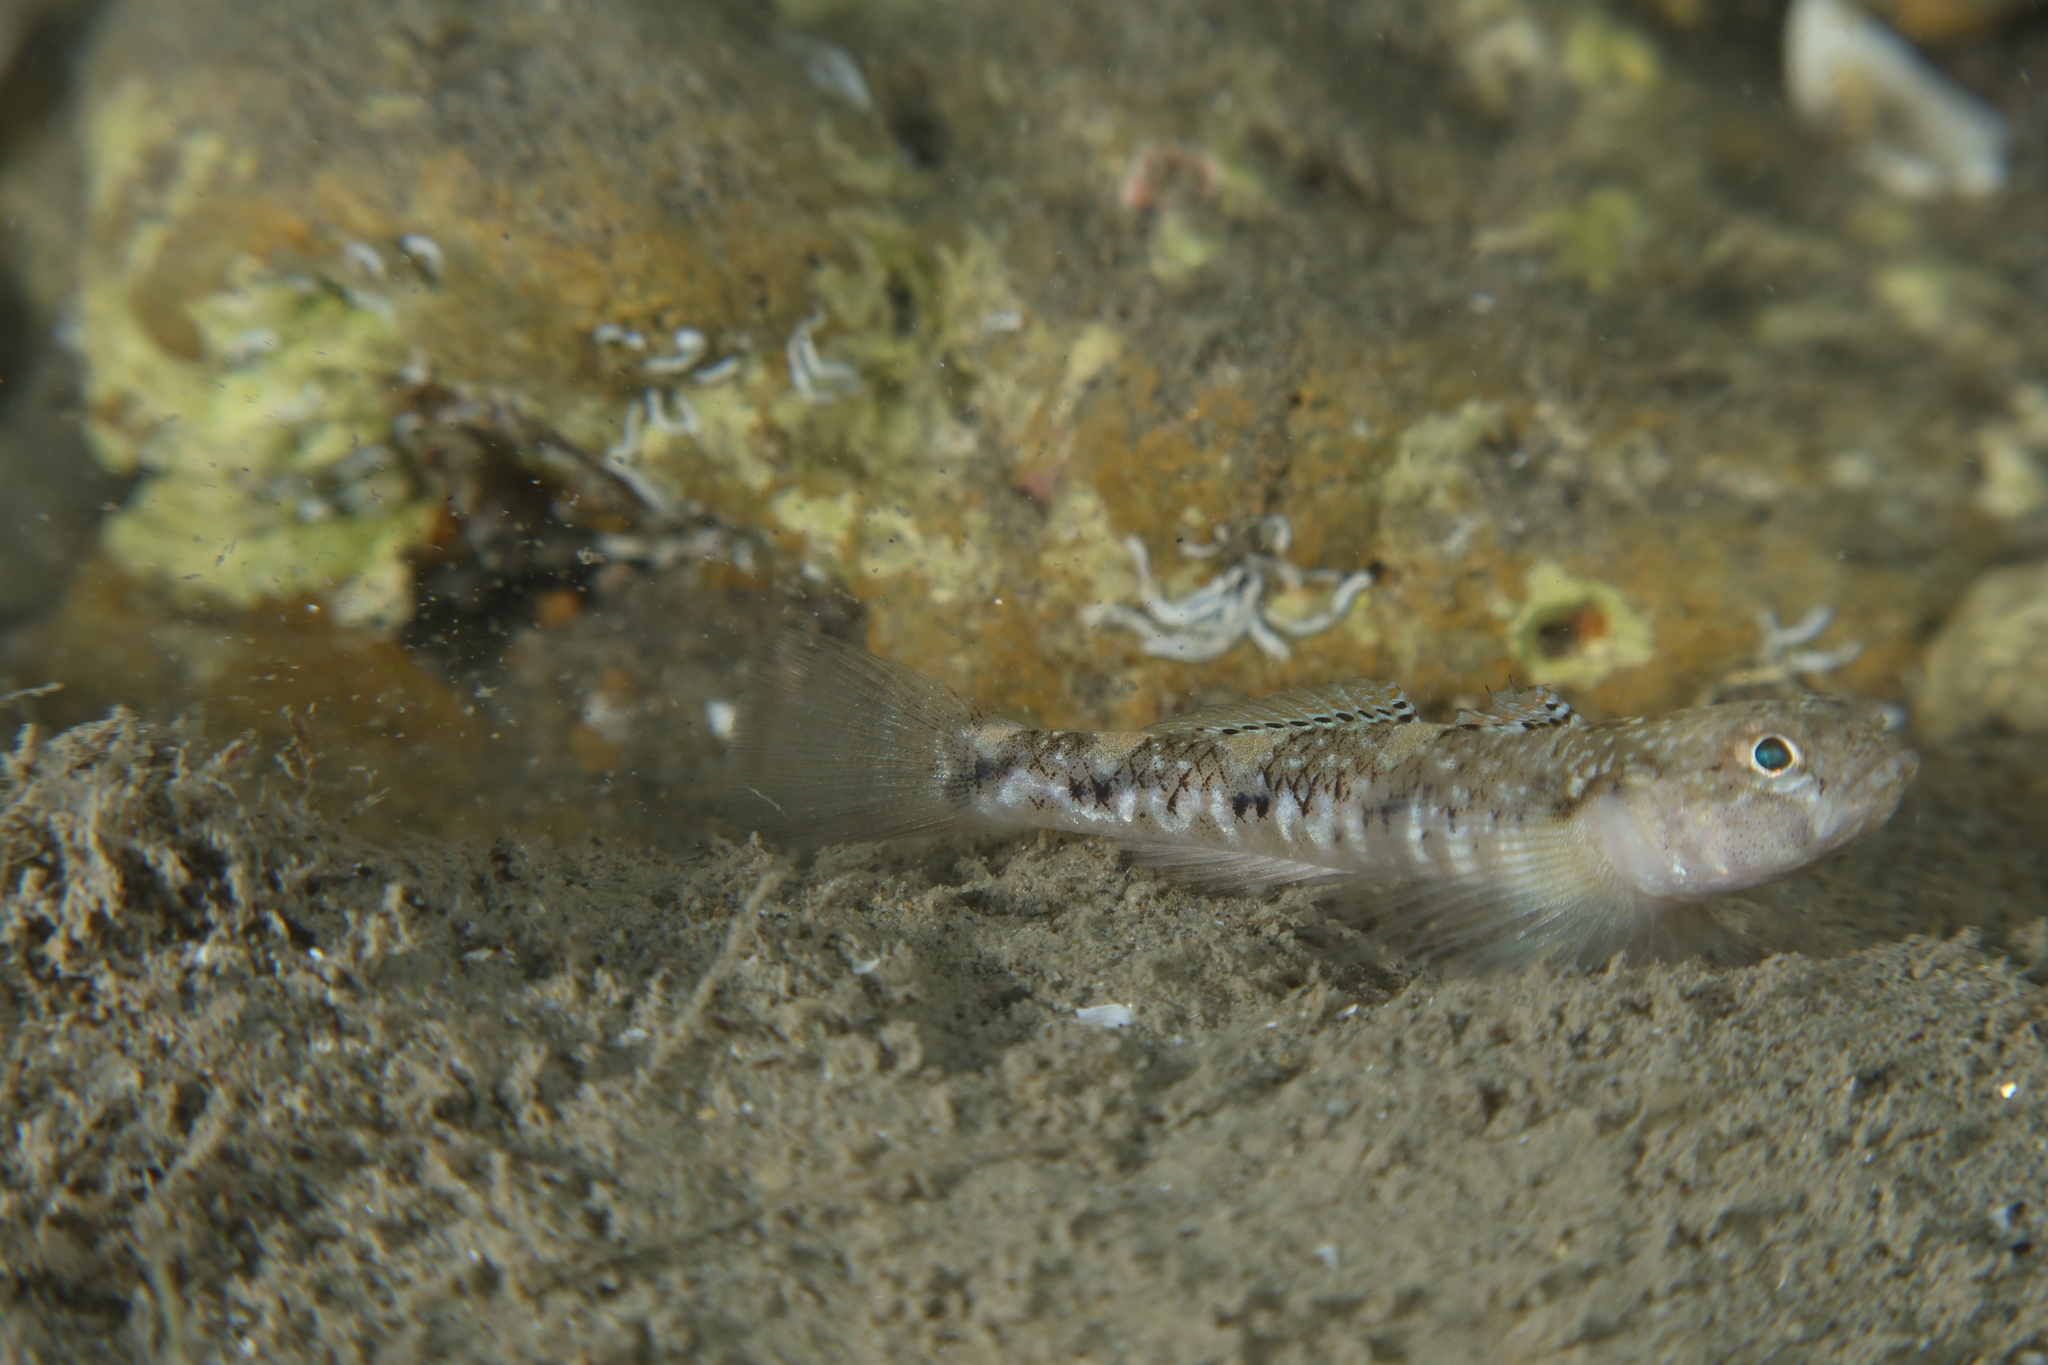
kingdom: Animalia
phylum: Chordata
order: Perciformes
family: Gobiidae
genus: Pomatoschistus
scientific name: Pomatoschistus pictus
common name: Painted goby
